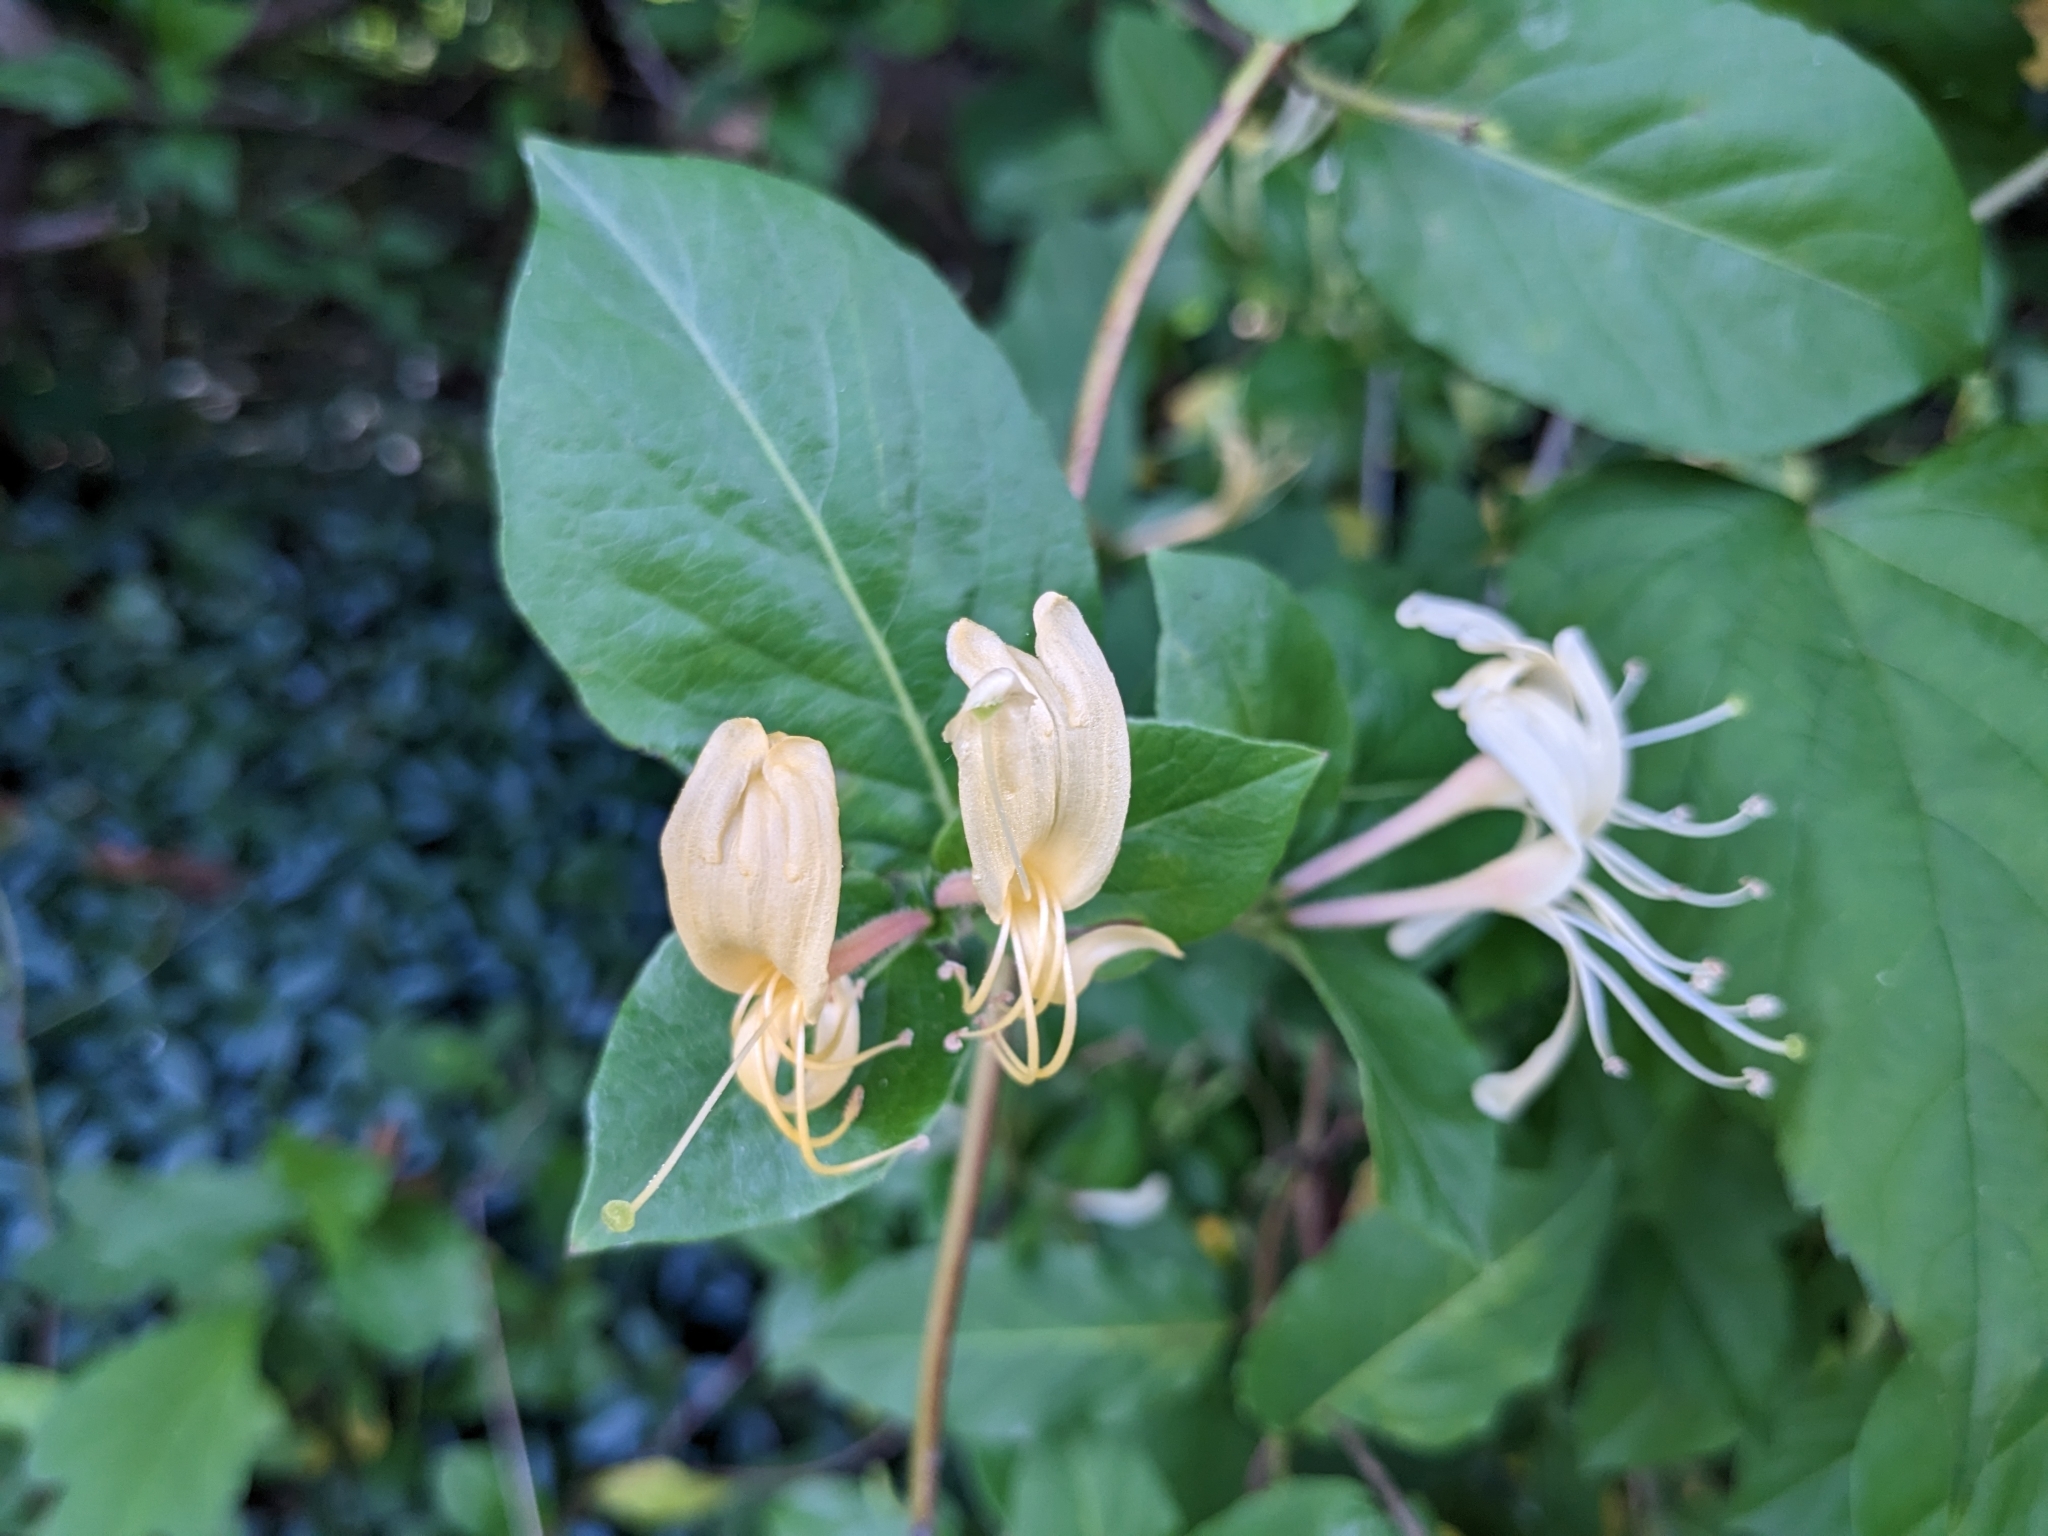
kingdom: Plantae
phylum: Tracheophyta
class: Magnoliopsida
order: Dipsacales
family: Caprifoliaceae
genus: Lonicera
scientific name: Lonicera japonica
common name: Japanese honeysuckle
